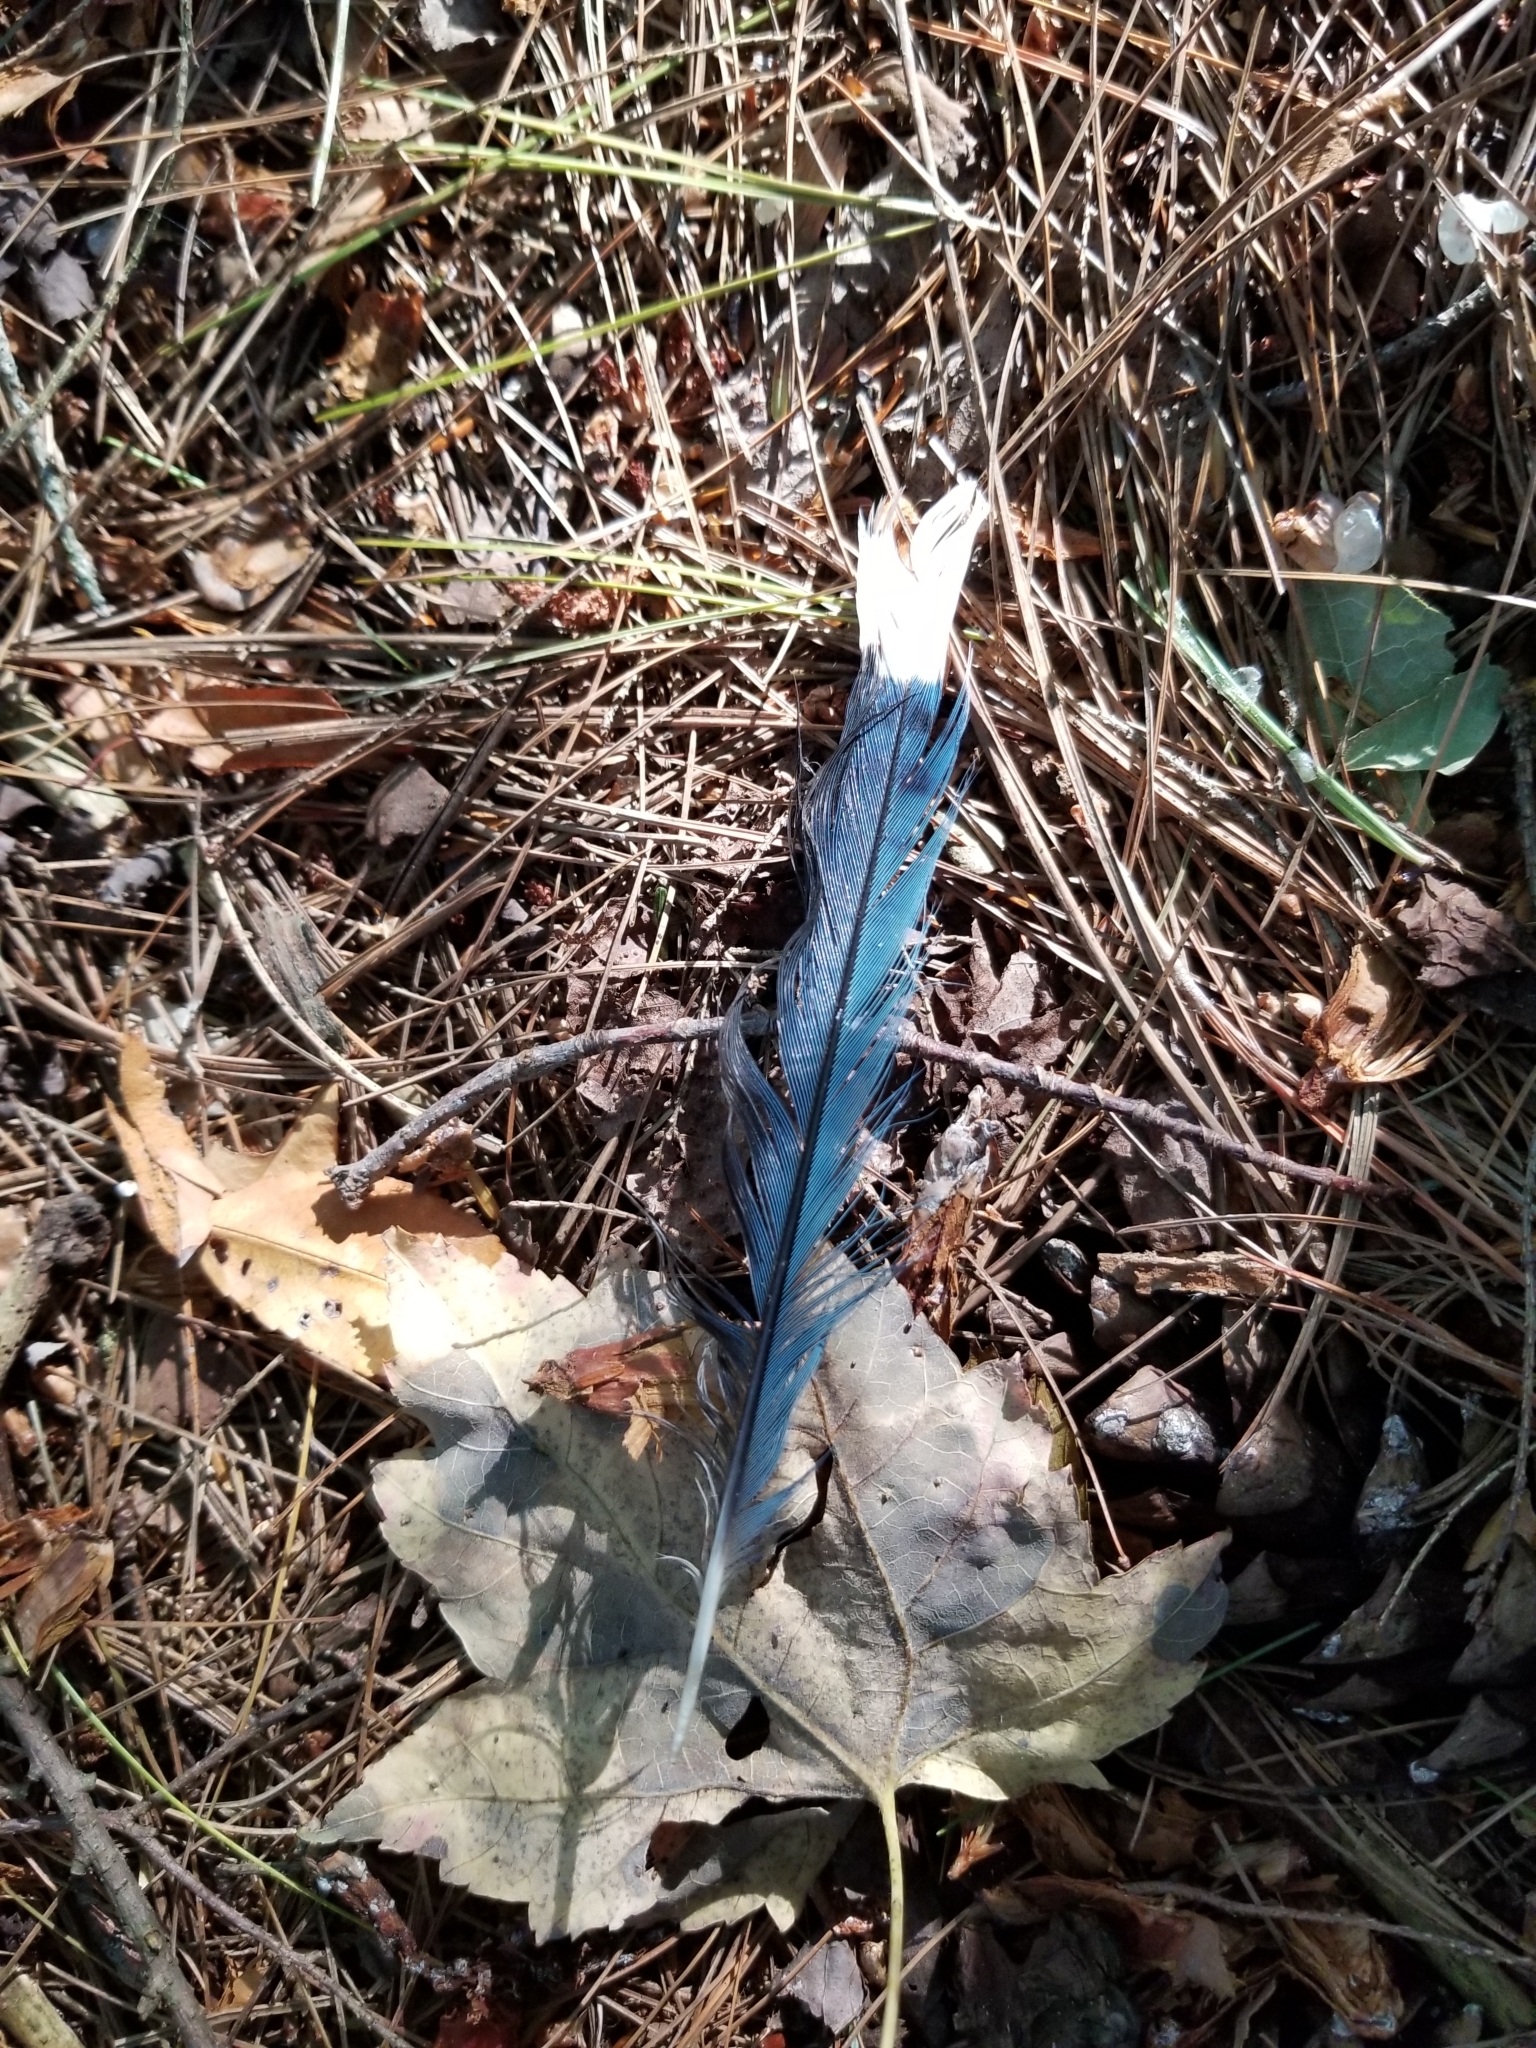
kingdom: Animalia
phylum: Chordata
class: Aves
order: Passeriformes
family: Corvidae
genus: Cyanocitta
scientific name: Cyanocitta cristata
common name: Blue jay
